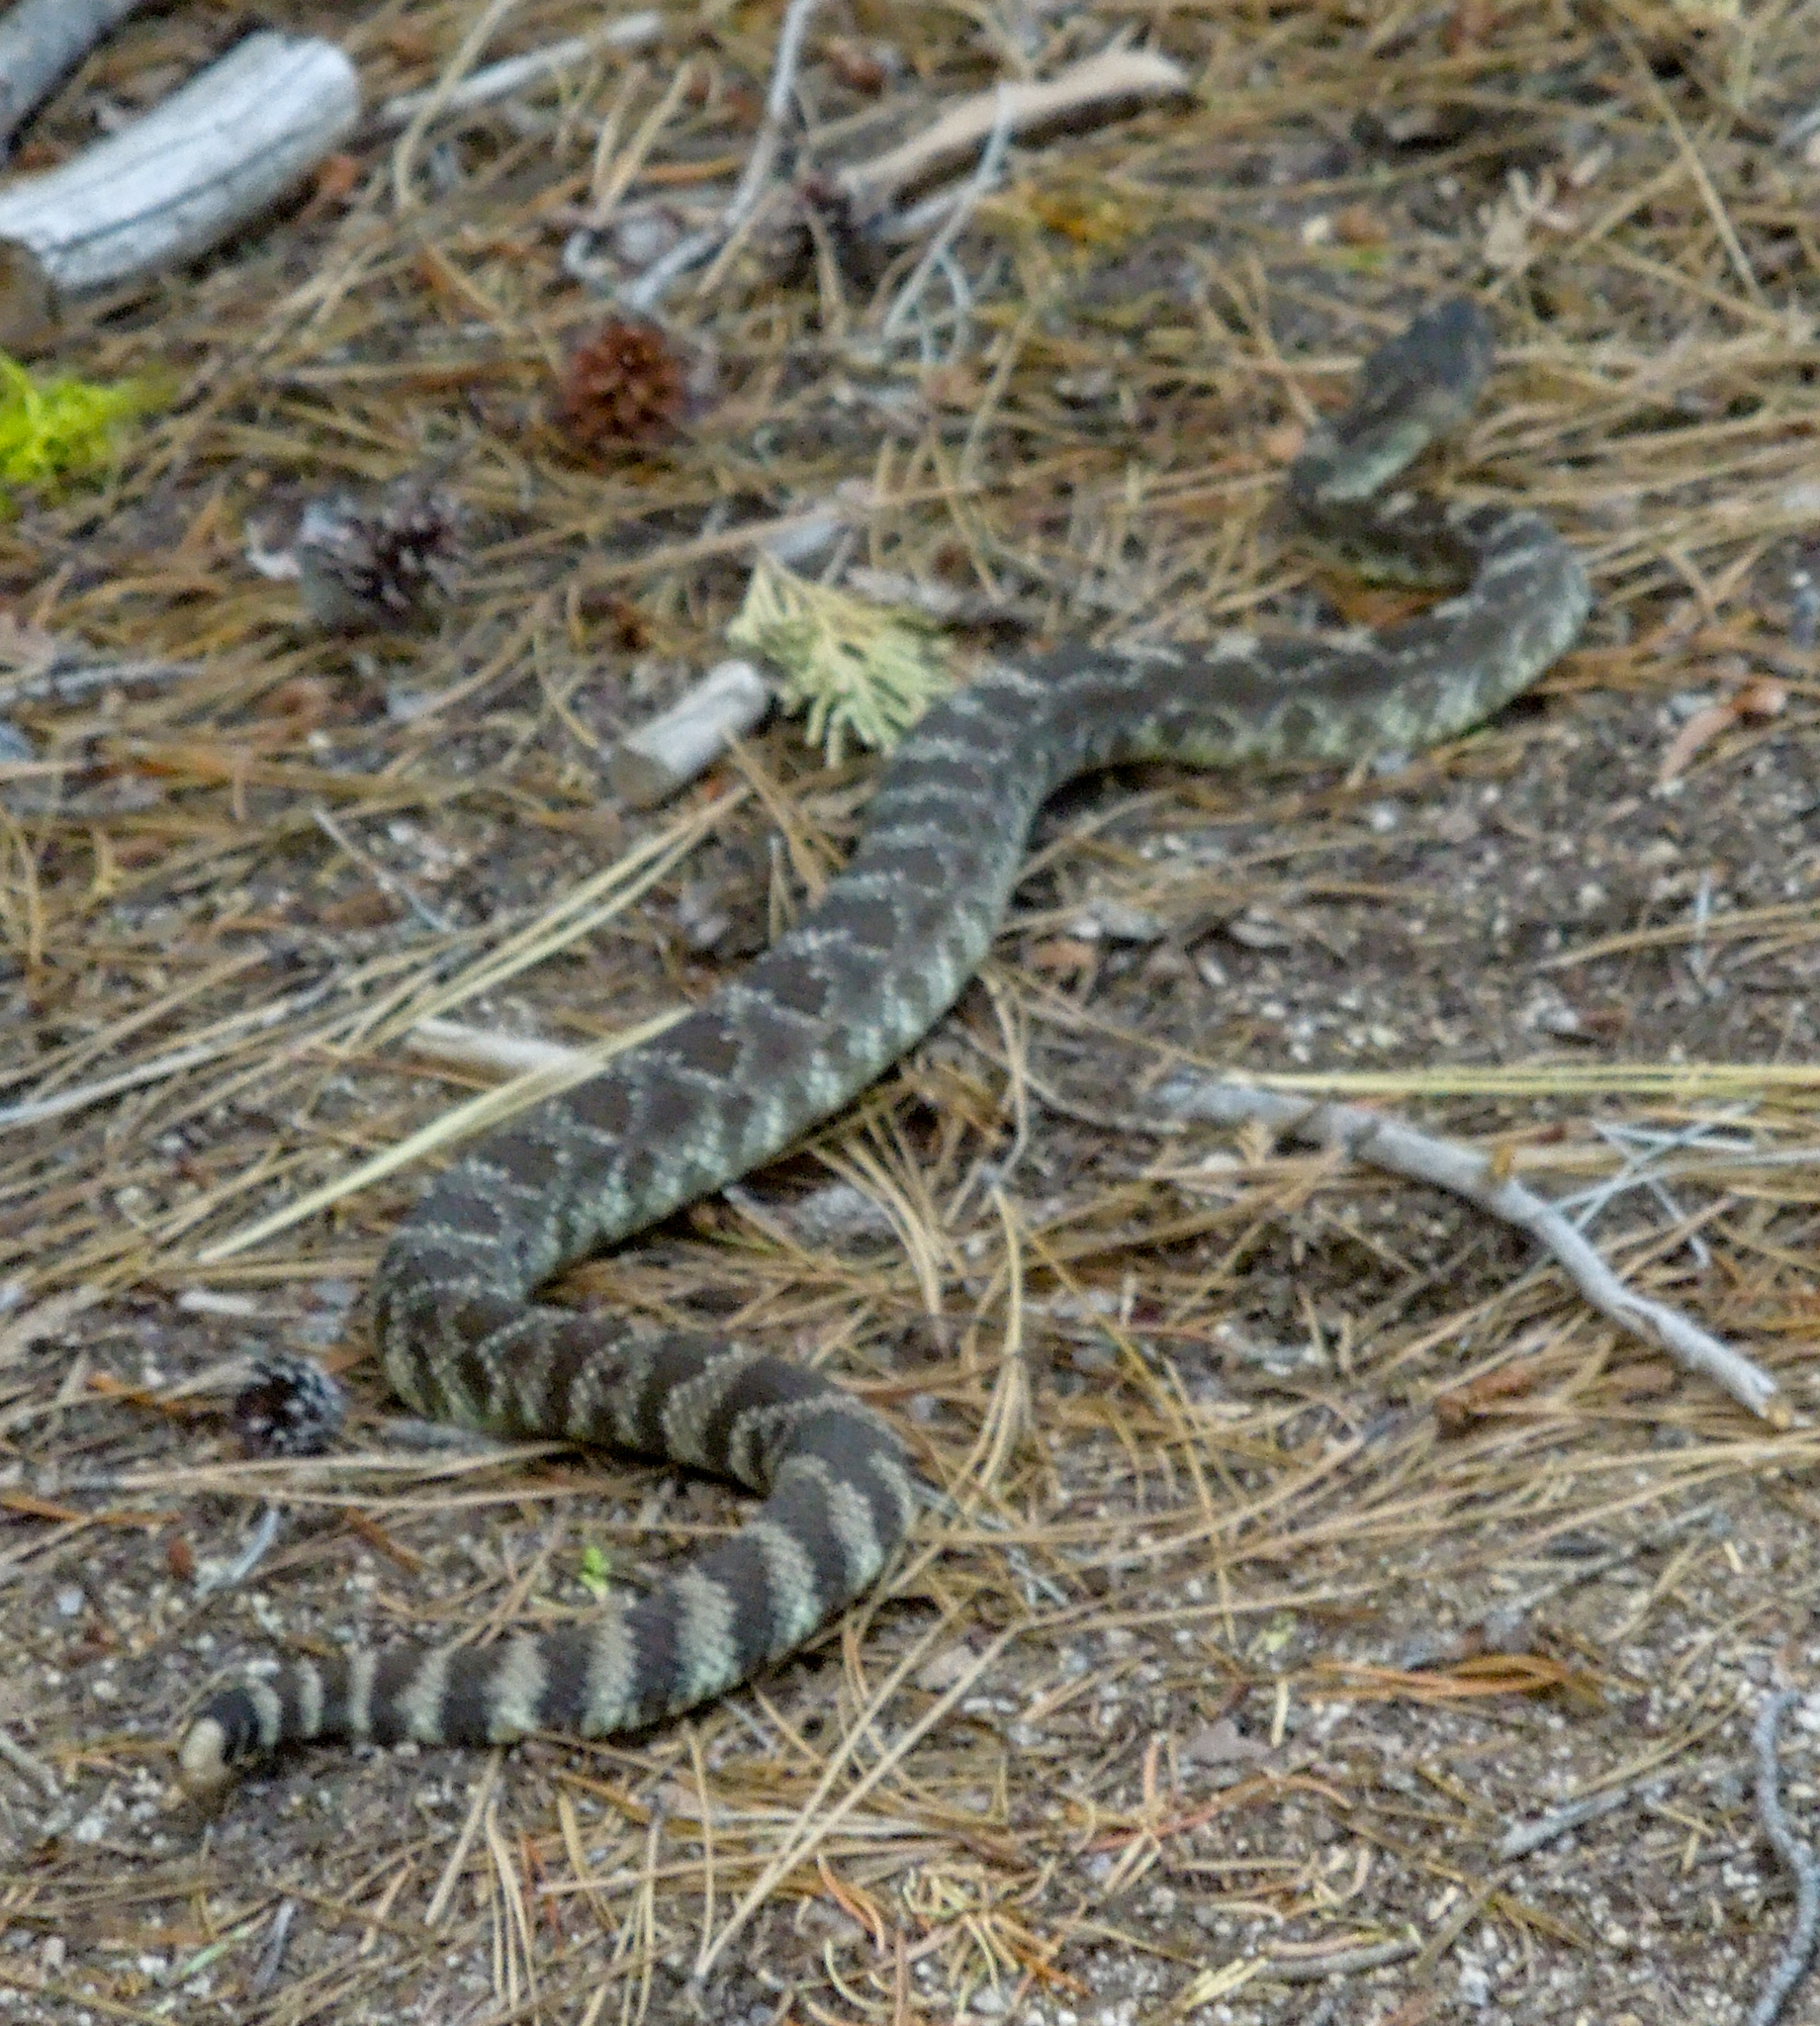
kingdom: Animalia
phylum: Chordata
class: Squamata
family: Viperidae
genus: Crotalus
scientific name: Crotalus oreganus
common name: Abyssus
